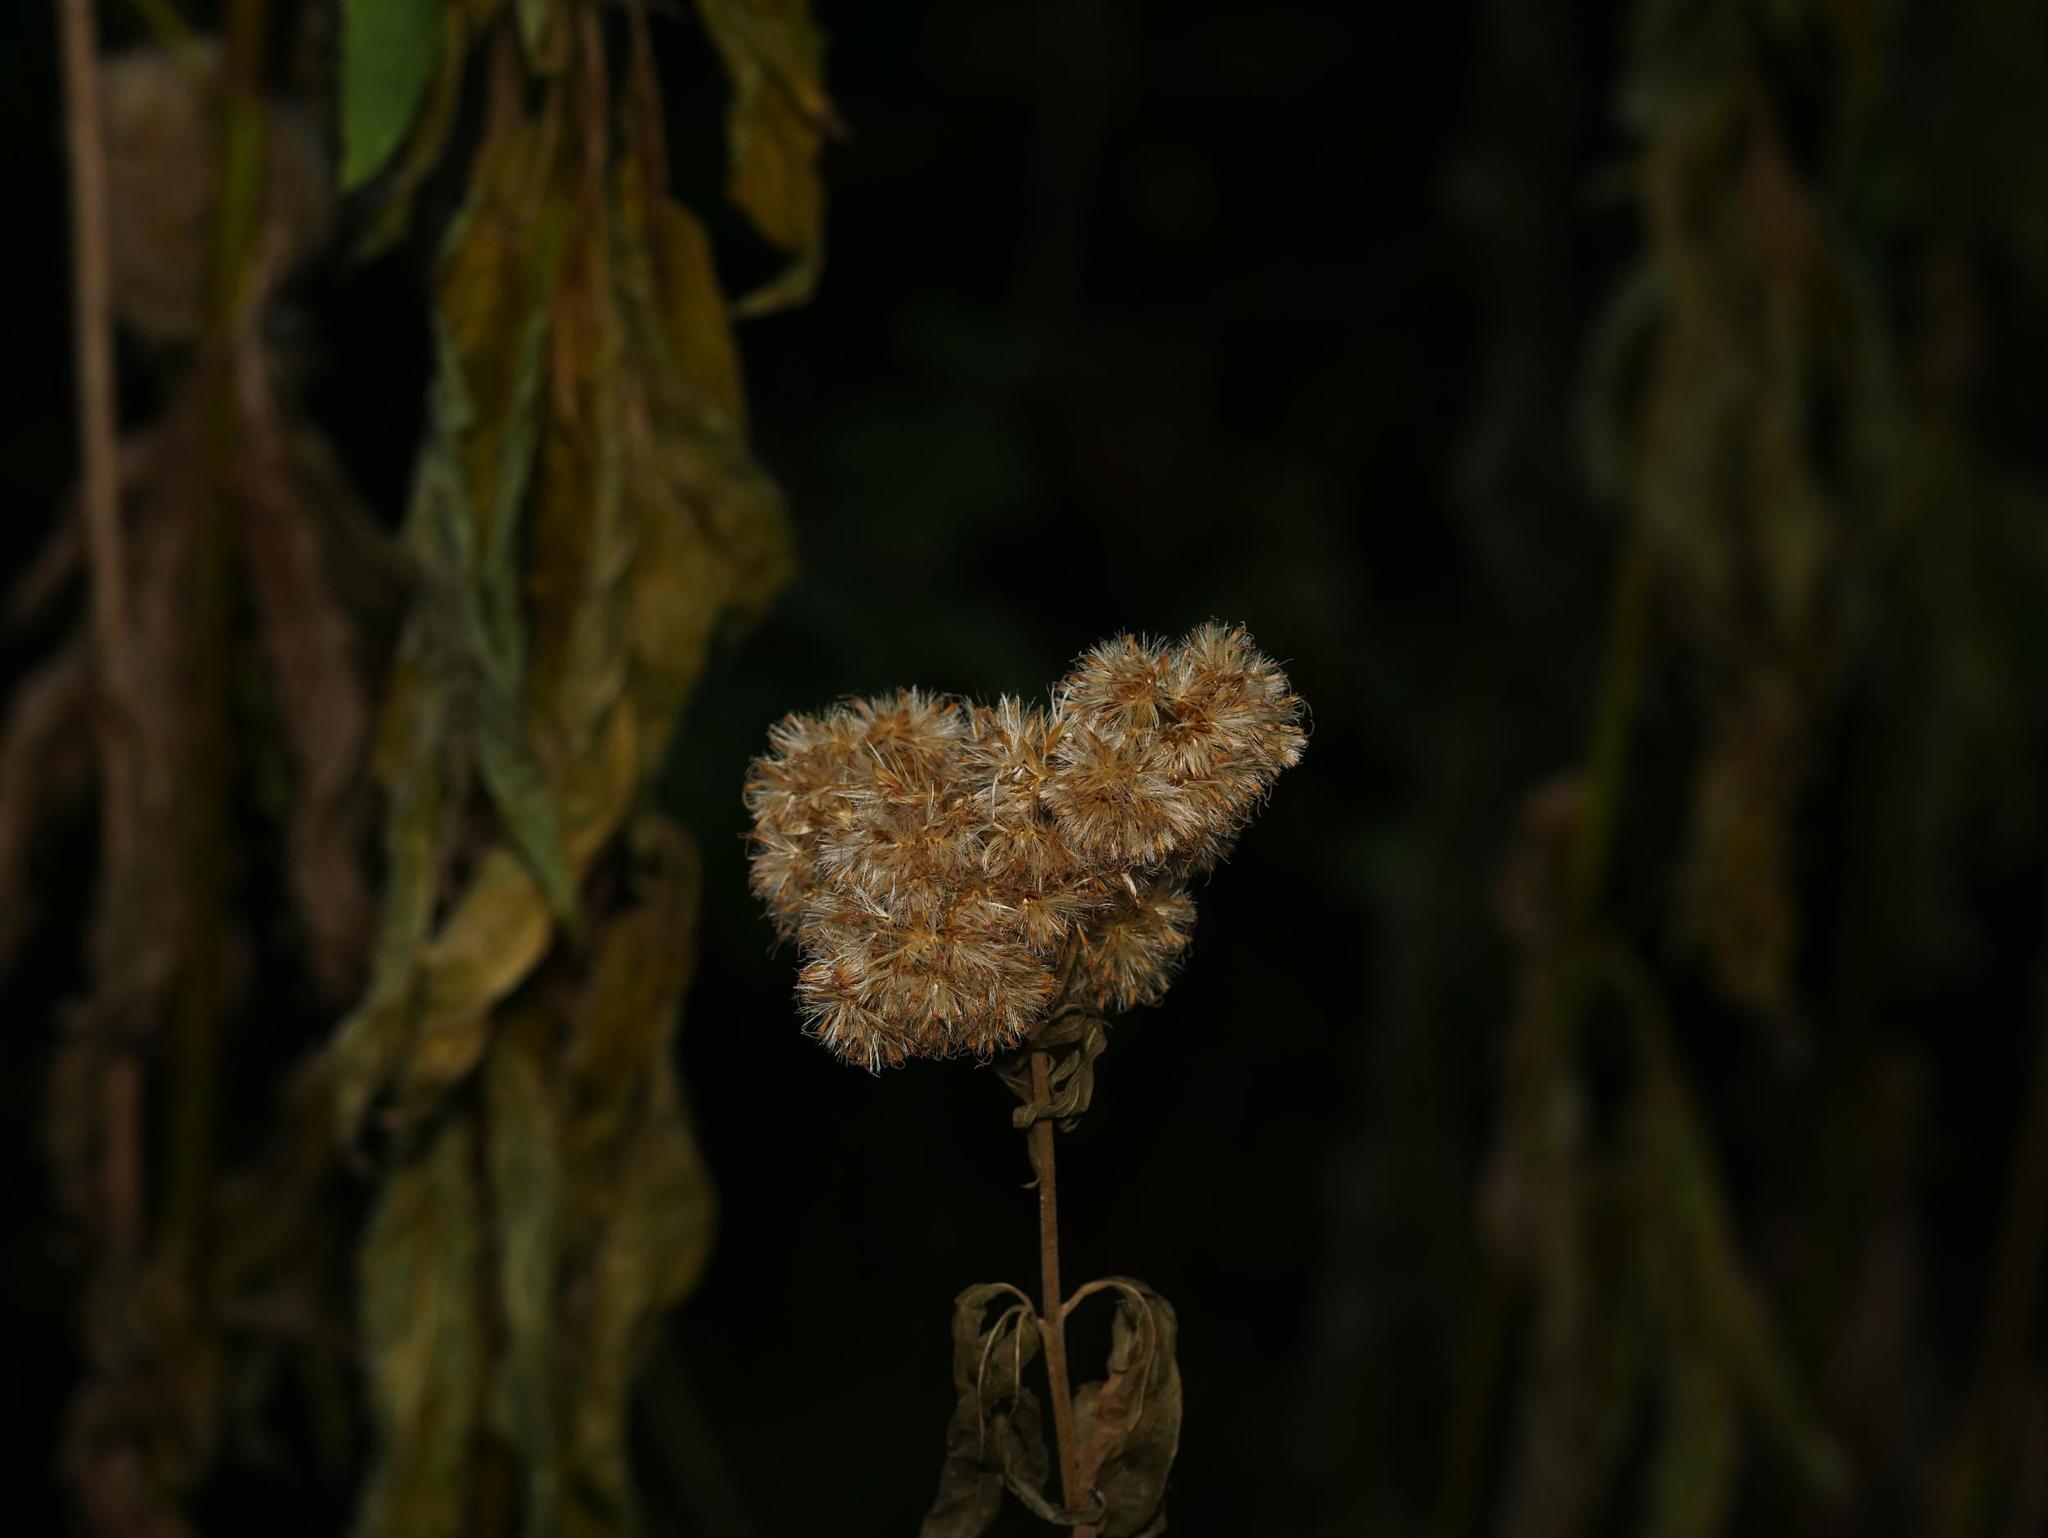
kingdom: Plantae
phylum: Tracheophyta
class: Magnoliopsida
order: Asterales
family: Asteraceae
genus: Eupatorium
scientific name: Eupatorium cannabinum
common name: Hemp-agrimony
